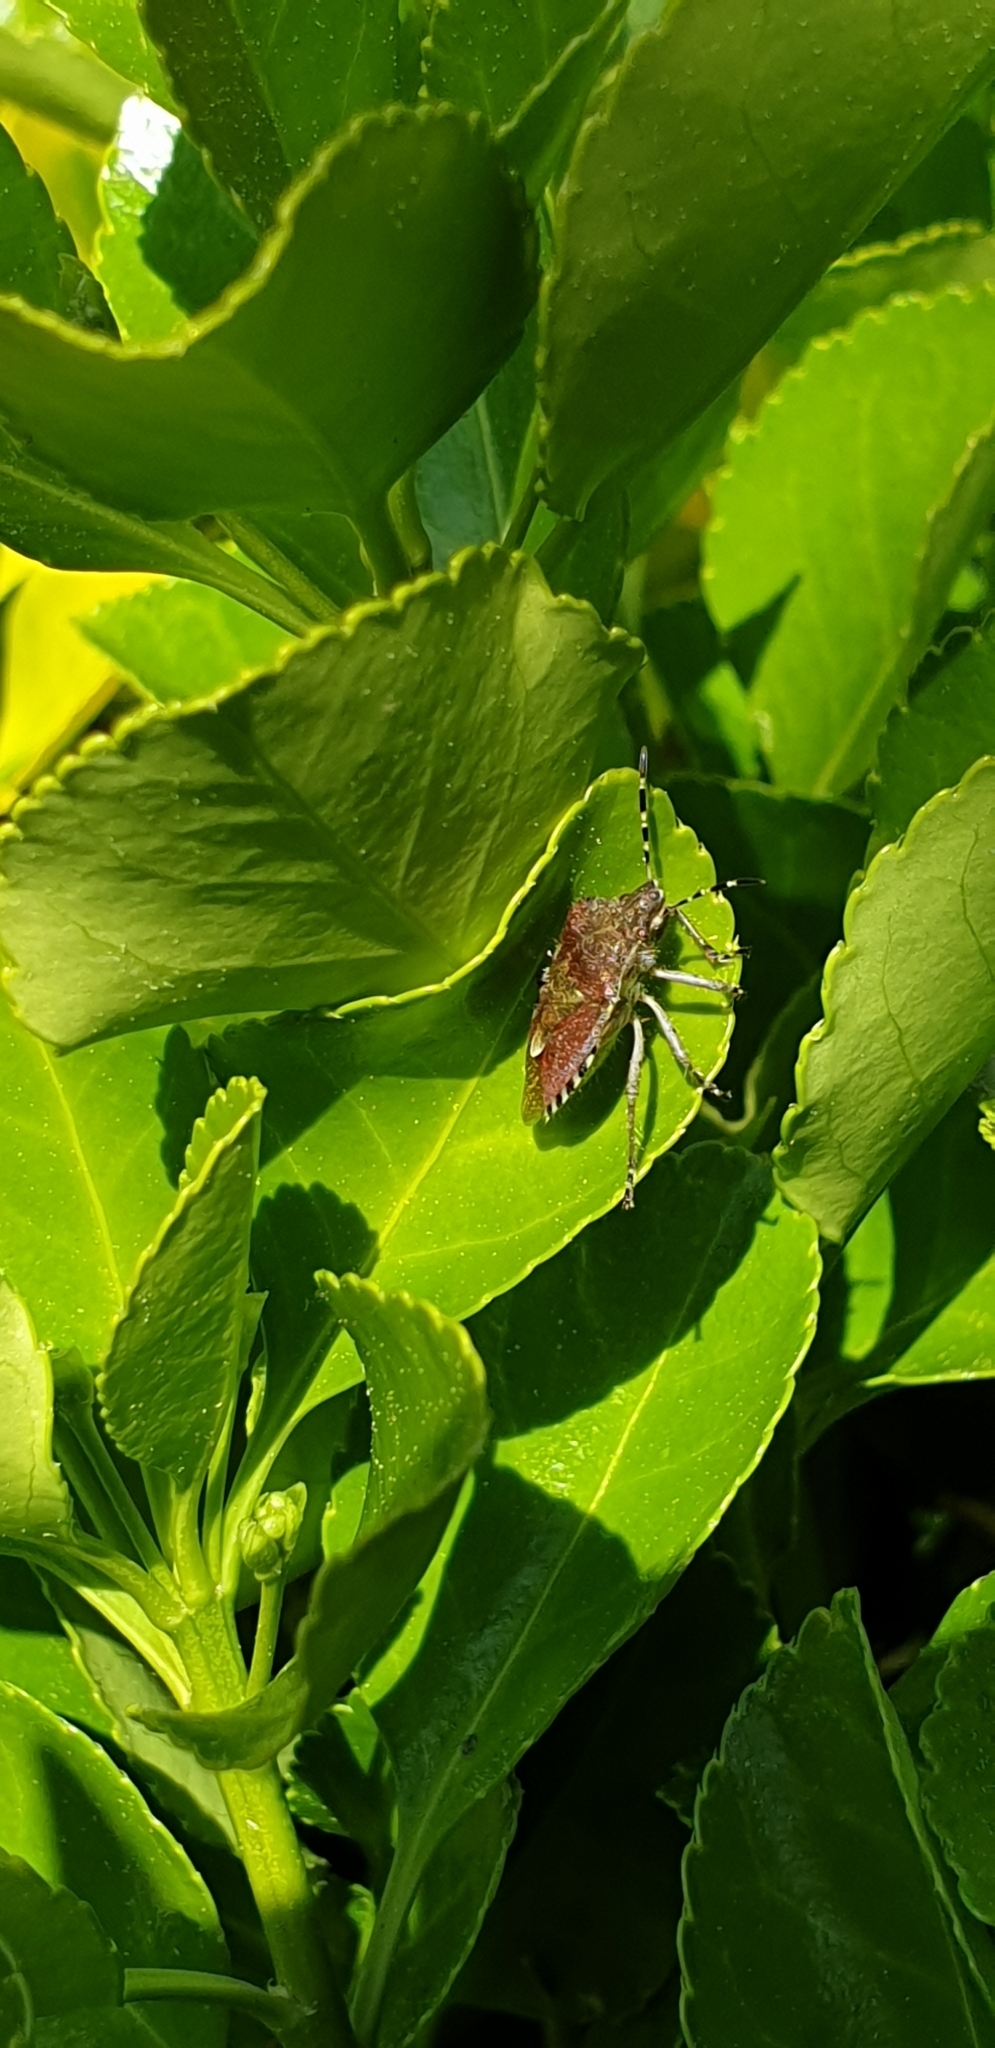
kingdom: Animalia
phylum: Arthropoda
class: Insecta
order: Hemiptera
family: Pentatomidae
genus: Dolycoris
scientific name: Dolycoris baccarum
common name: Sloe bug
